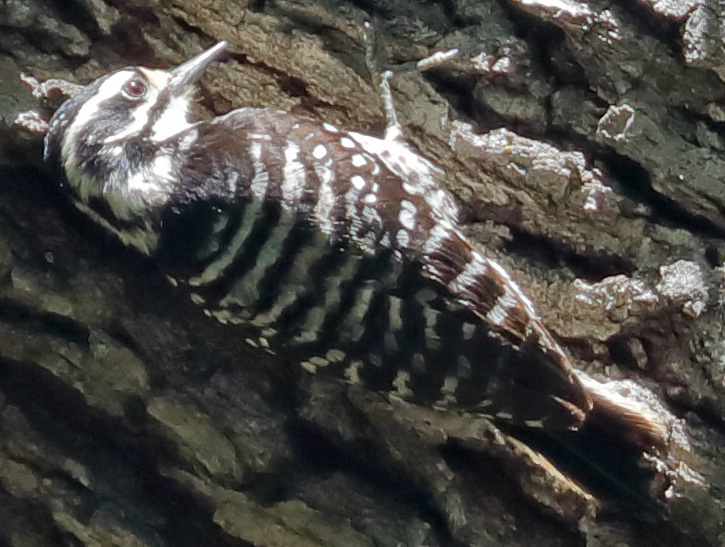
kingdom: Animalia
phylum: Chordata
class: Aves
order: Piciformes
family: Picidae
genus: Dryobates
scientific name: Dryobates nuttallii
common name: Nuttall's woodpecker
